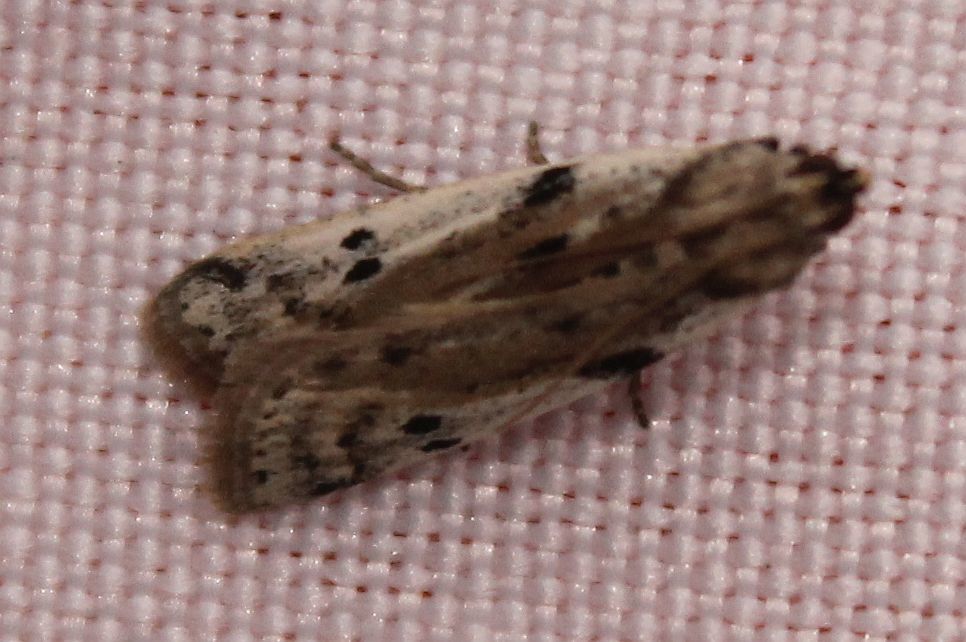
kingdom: Animalia
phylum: Arthropoda
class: Insecta
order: Lepidoptera
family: Pyralidae
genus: Phycitodes
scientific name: Phycitodes binaevella
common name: Ermine knot-horn
